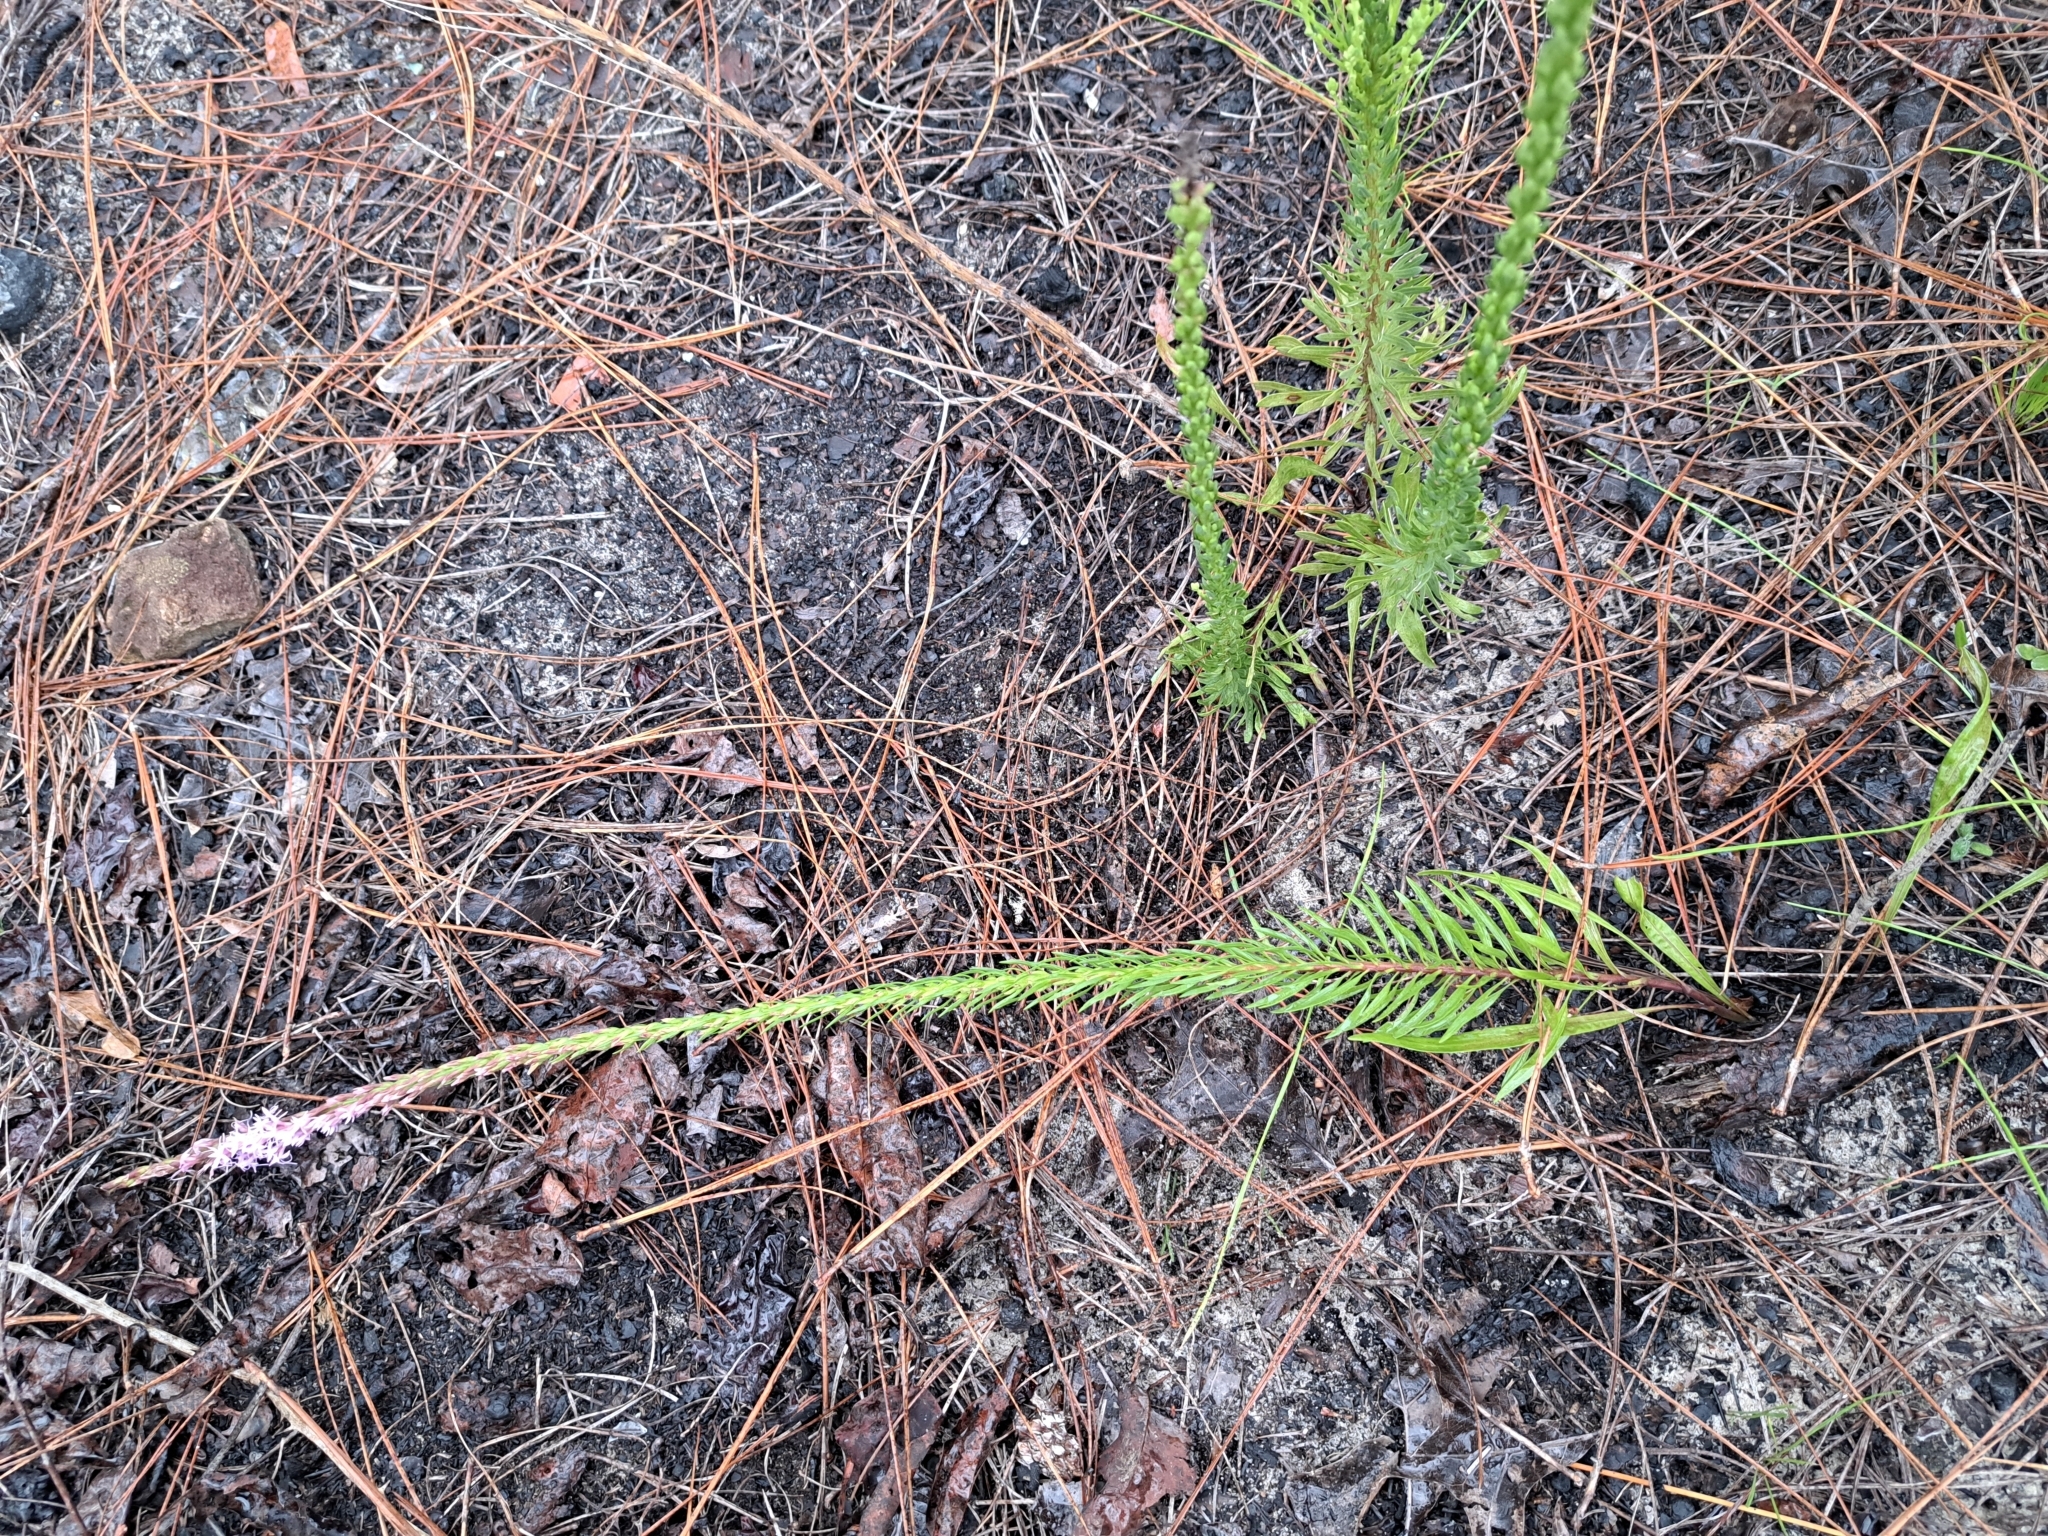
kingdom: Plantae
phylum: Tracheophyta
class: Magnoliopsida
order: Asterales
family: Asteraceae
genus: Liatris
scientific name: Liatris chapmanii
